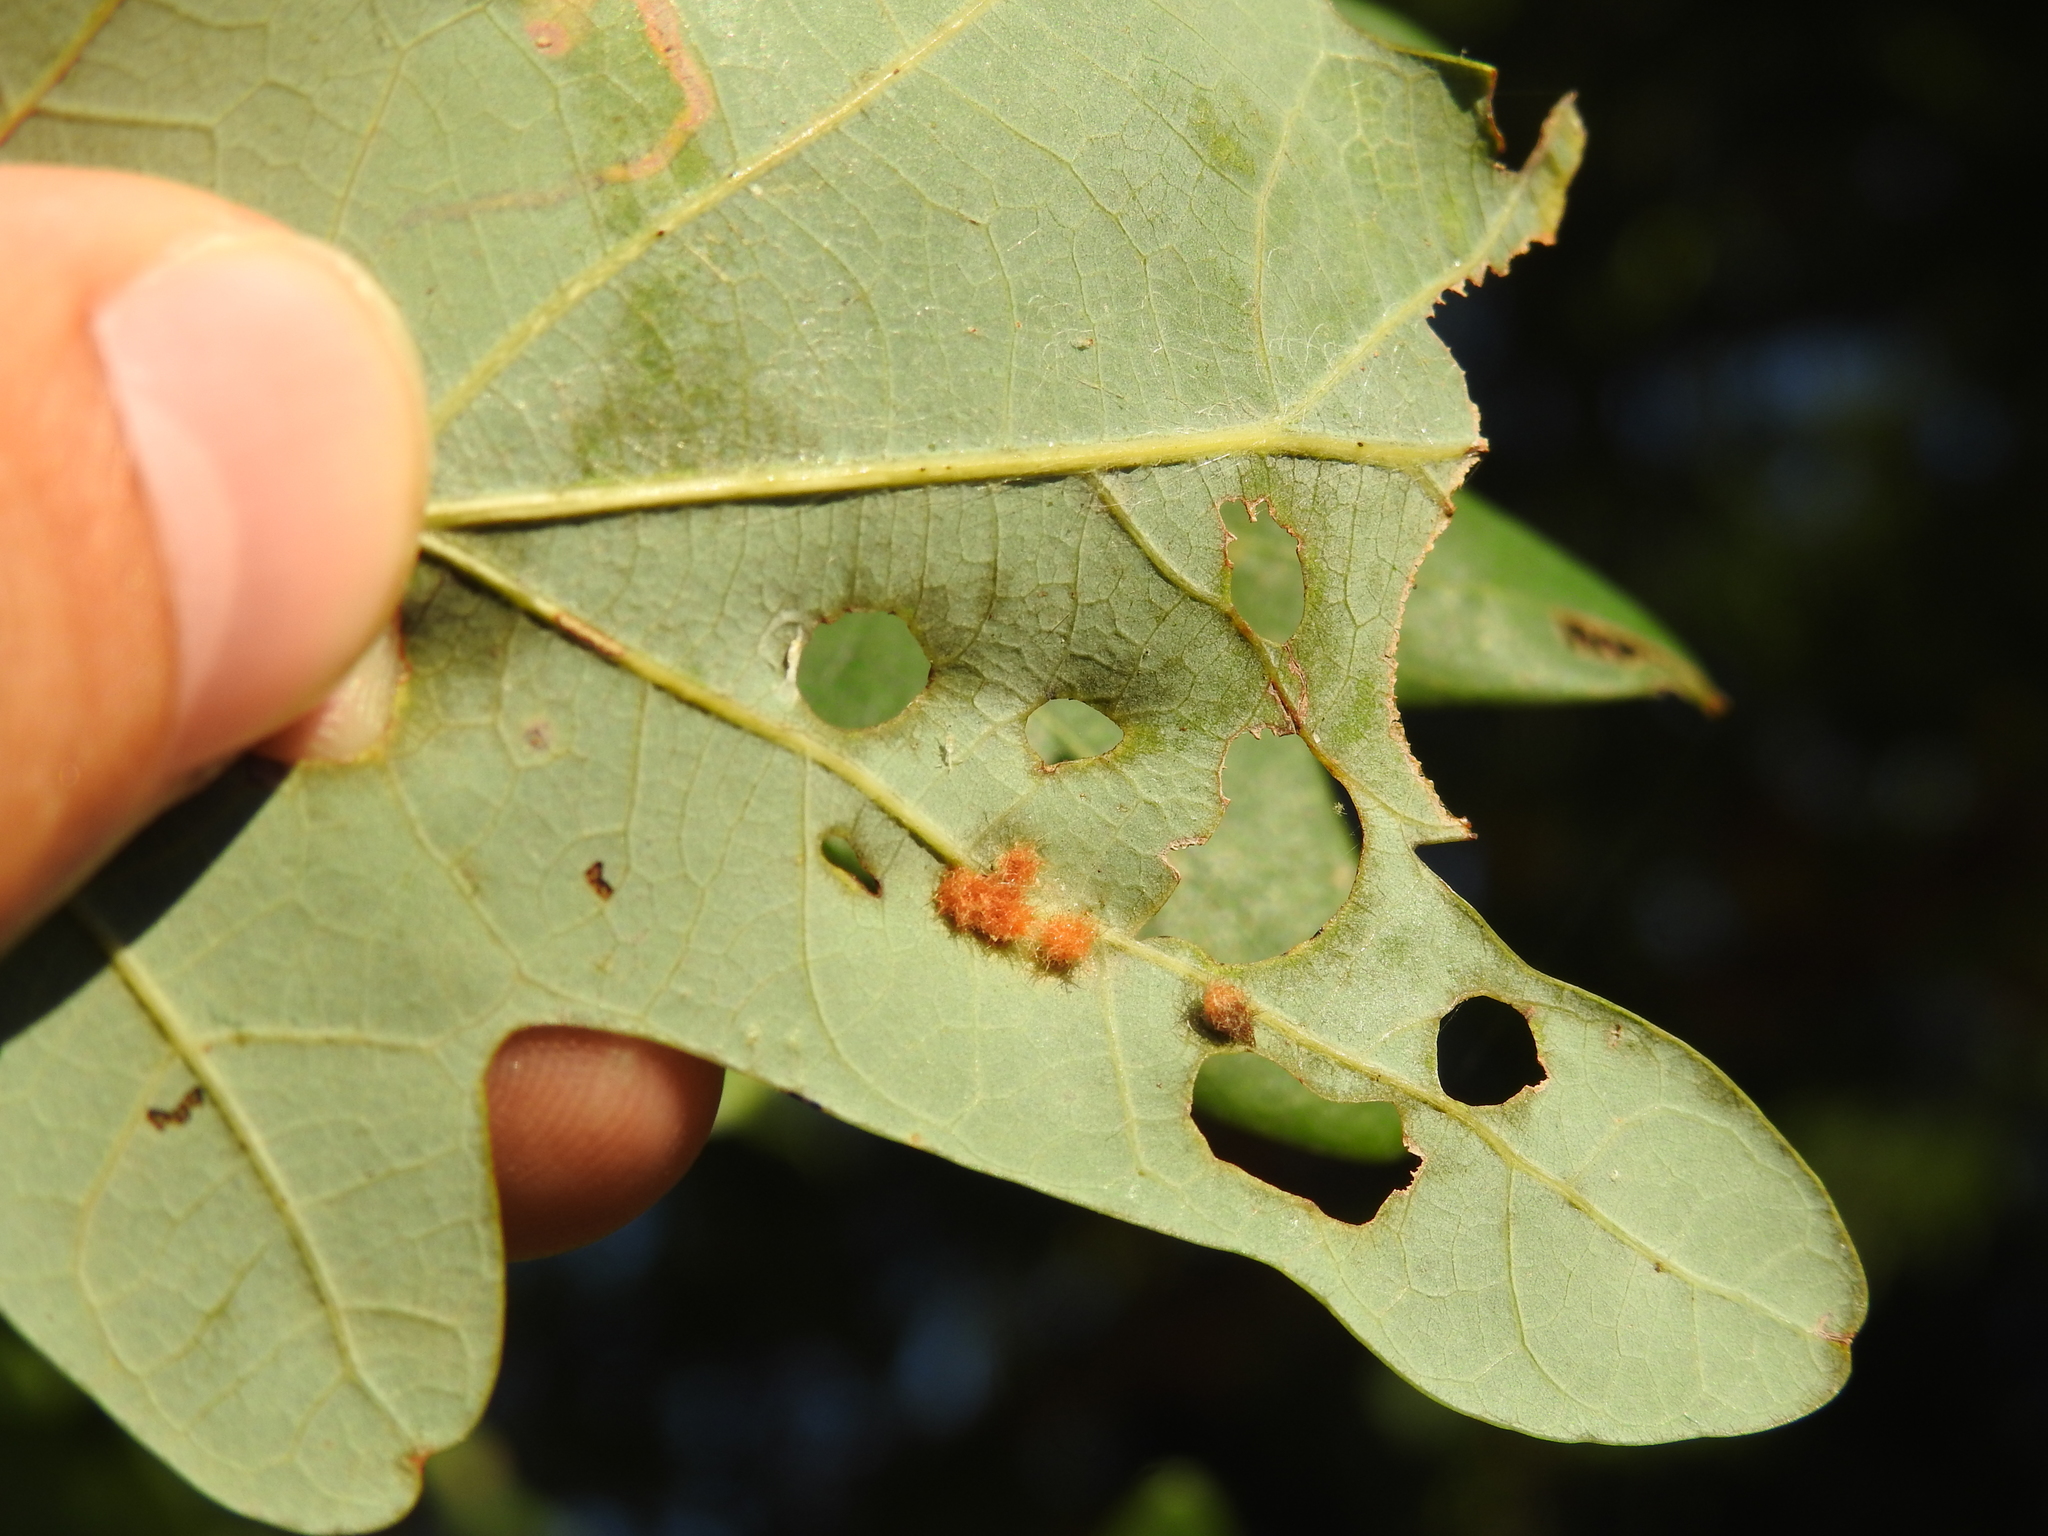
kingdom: Animalia
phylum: Arthropoda
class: Insecta
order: Hymenoptera
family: Cynipidae
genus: Andricus
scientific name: Andricus
